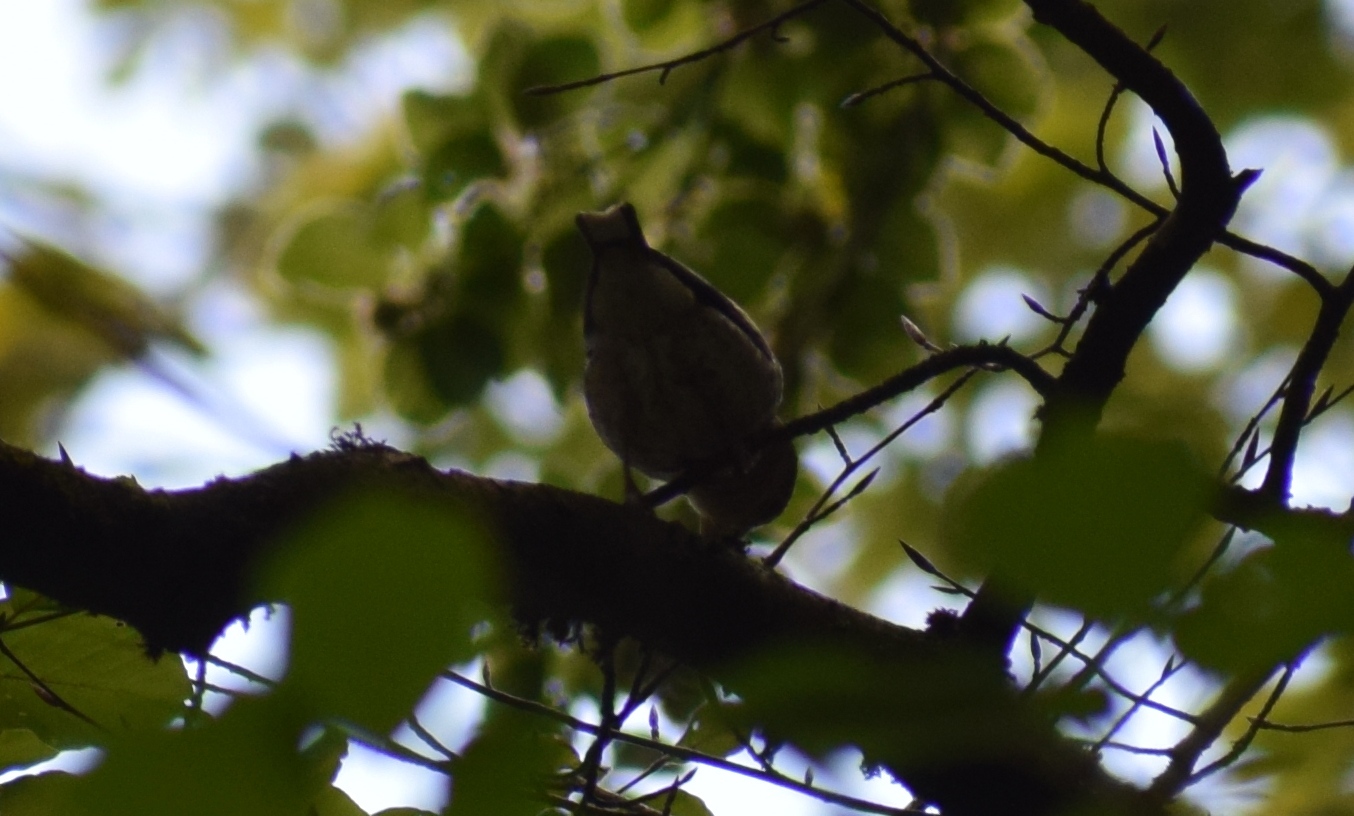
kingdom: Animalia
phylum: Chordata
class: Aves
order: Passeriformes
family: Fringillidae
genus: Coccothraustes
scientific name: Coccothraustes coccothraustes
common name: Hawfinch
